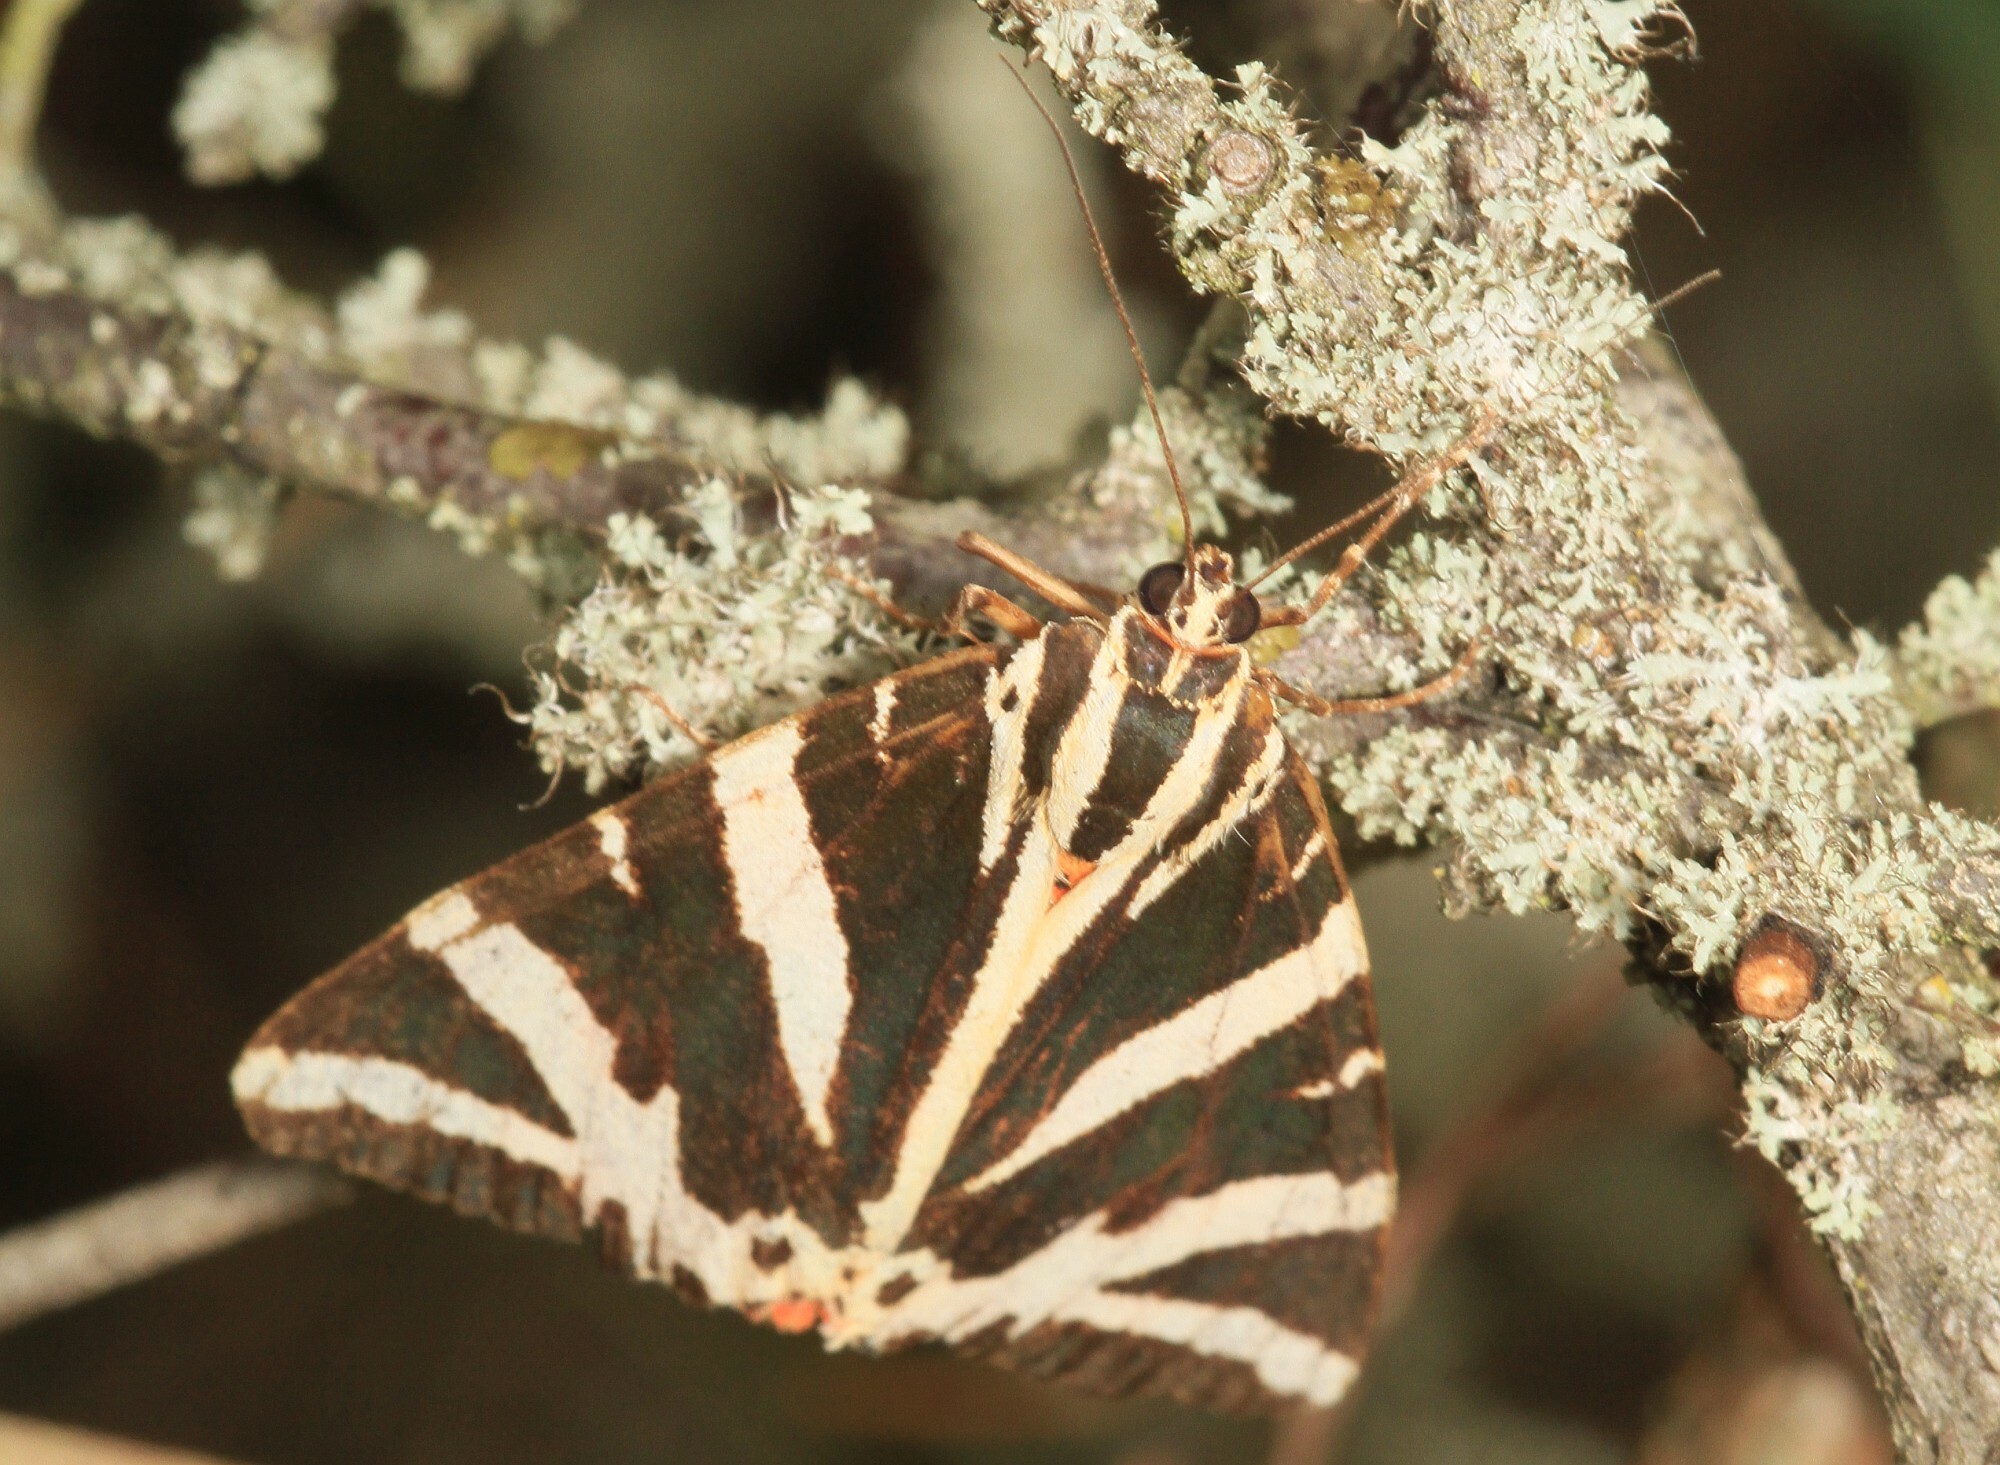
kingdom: Animalia
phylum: Arthropoda
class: Insecta
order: Lepidoptera
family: Erebidae
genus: Euplagia
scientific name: Euplagia quadripunctaria
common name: Jersey tiger
